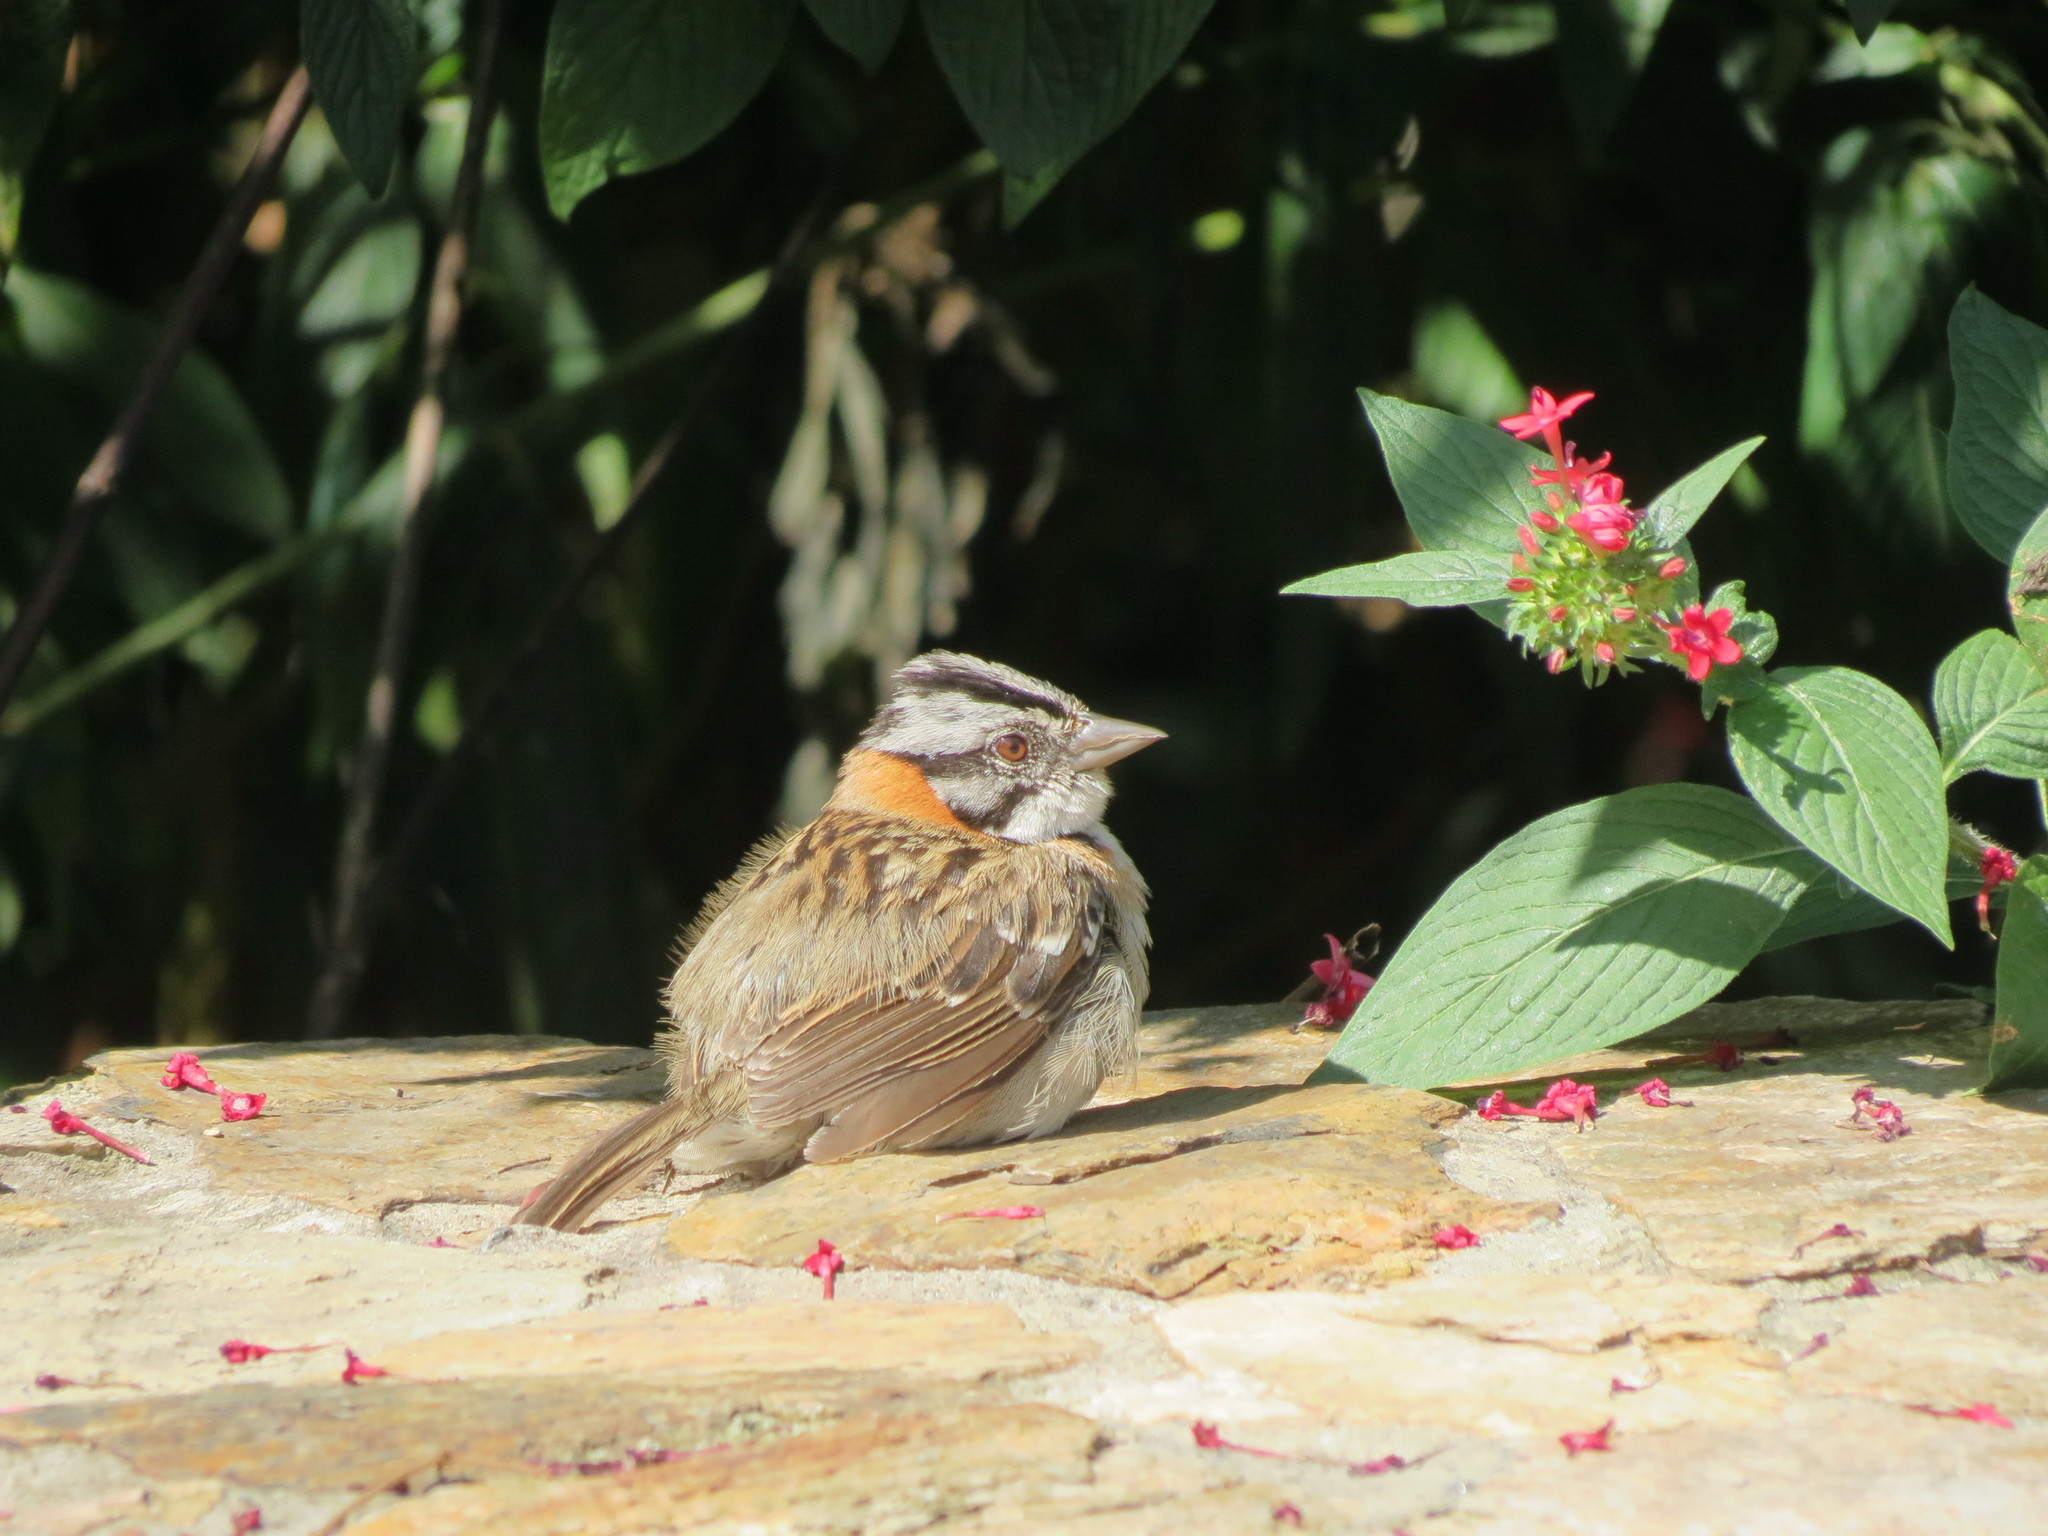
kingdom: Animalia
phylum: Chordata
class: Aves
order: Passeriformes
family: Passerellidae
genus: Zonotrichia
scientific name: Zonotrichia capensis
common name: Rufous-collared sparrow
